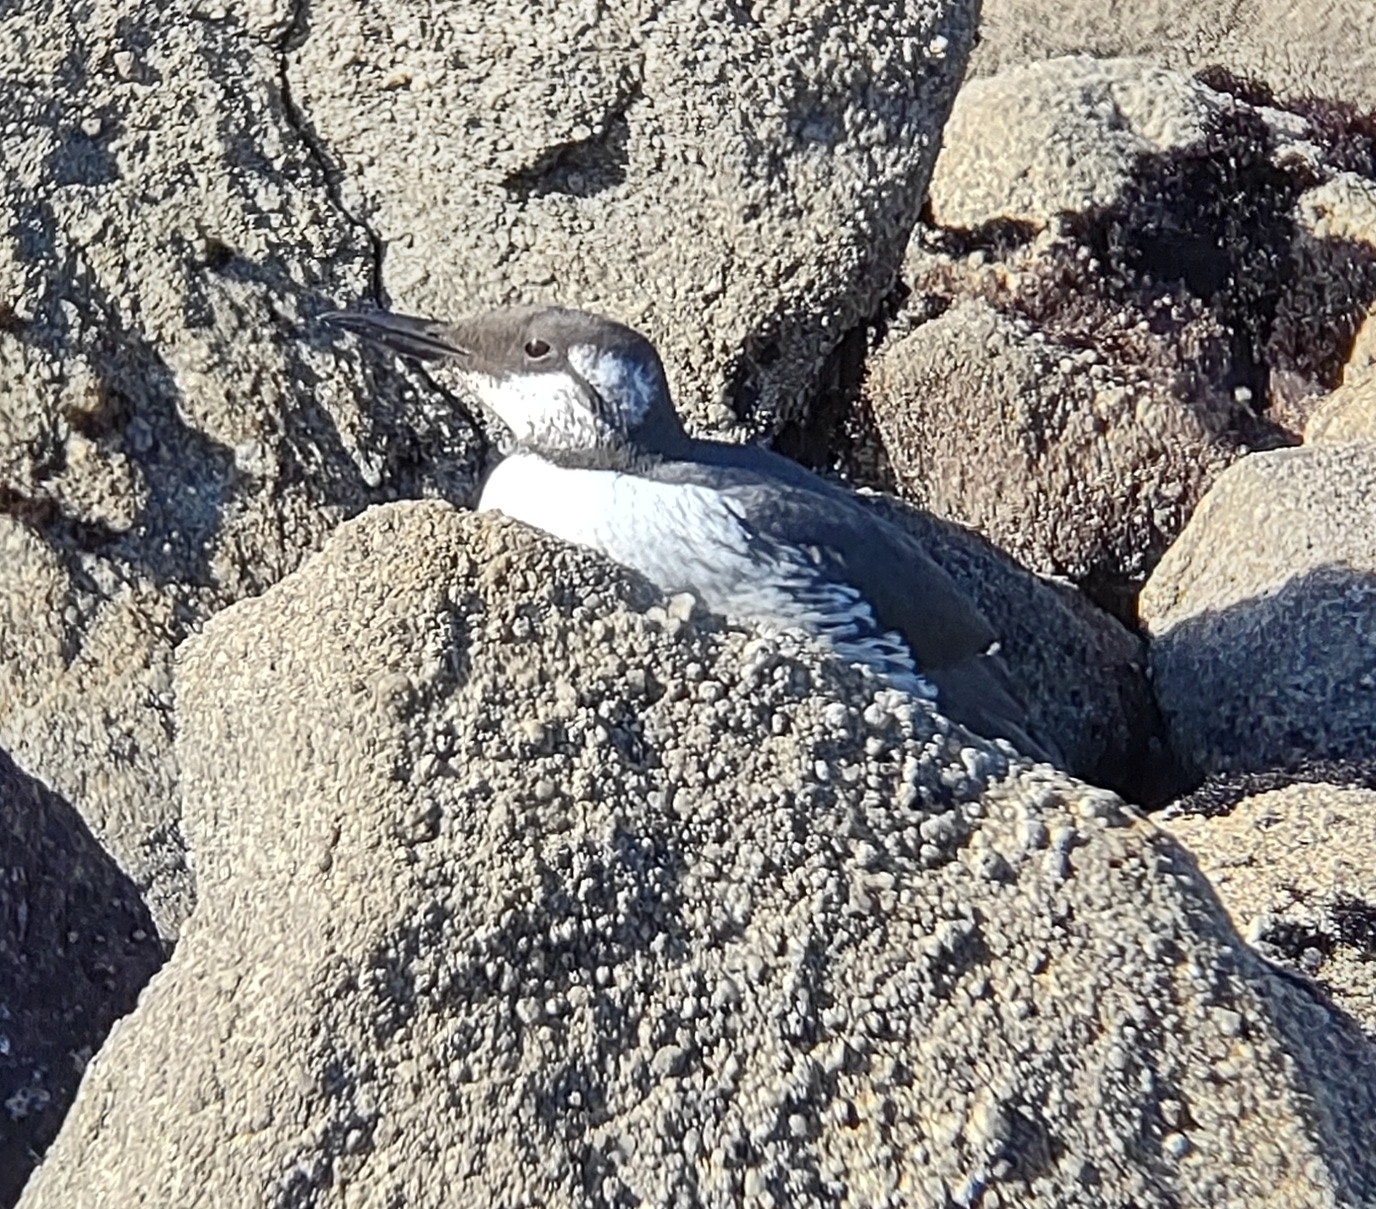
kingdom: Animalia
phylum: Chordata
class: Aves
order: Charadriiformes
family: Alcidae
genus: Uria
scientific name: Uria aalge
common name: Common murre
